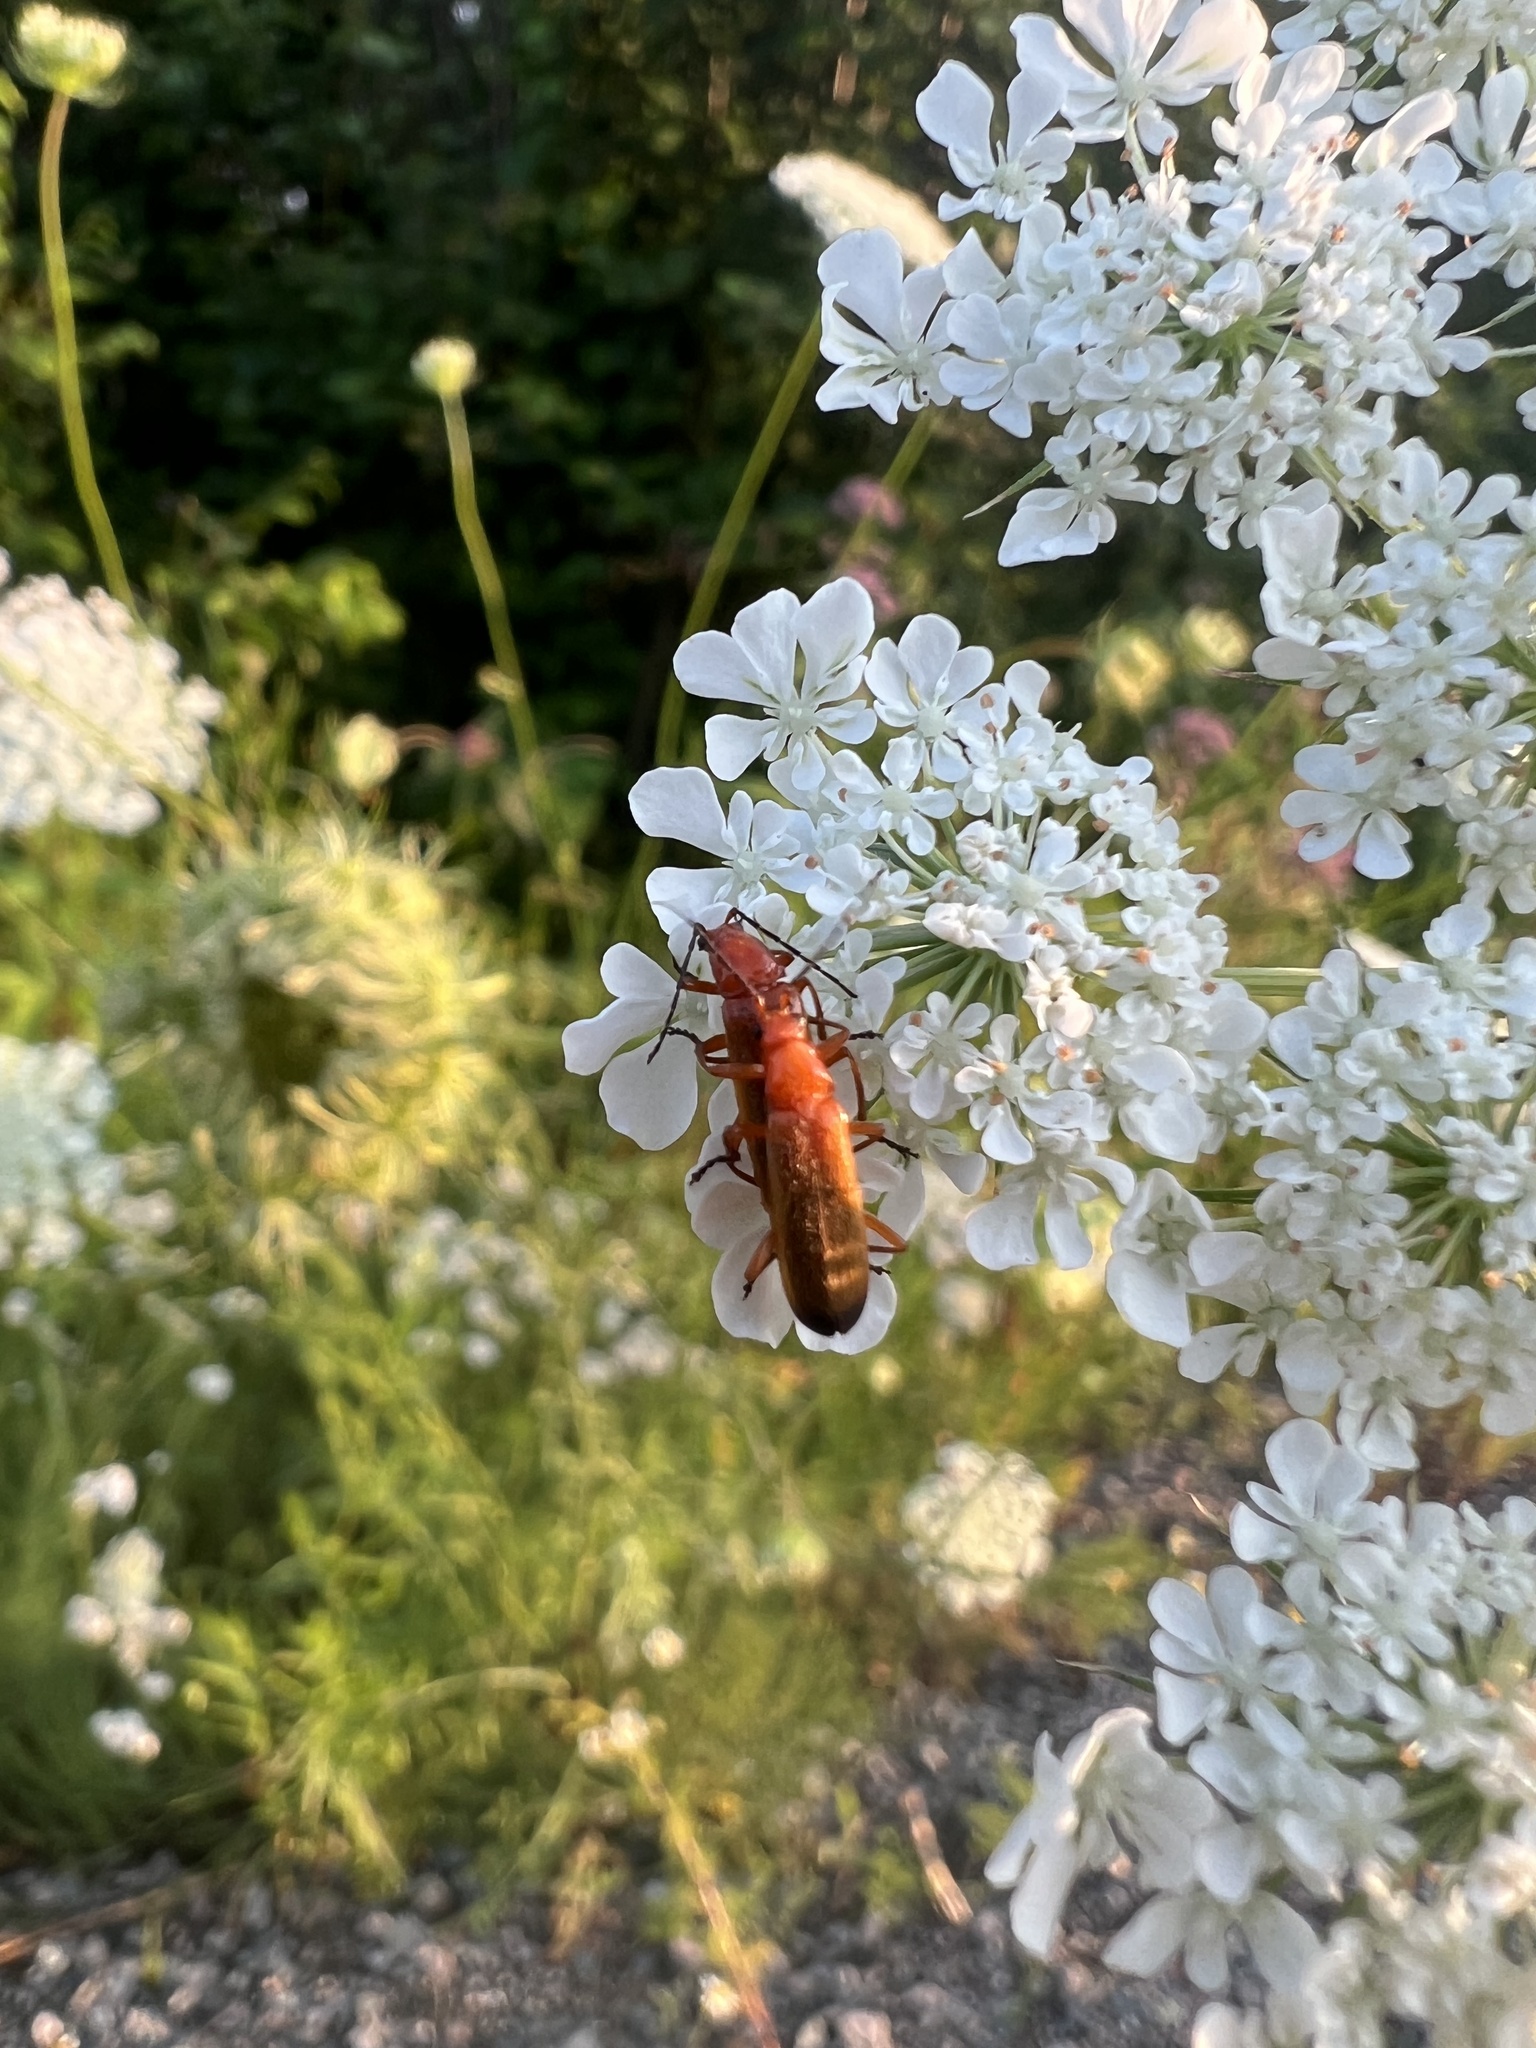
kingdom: Animalia
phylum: Arthropoda
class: Insecta
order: Coleoptera
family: Cantharidae
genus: Rhagonycha
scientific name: Rhagonycha fulva
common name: Common red soldier beetle
